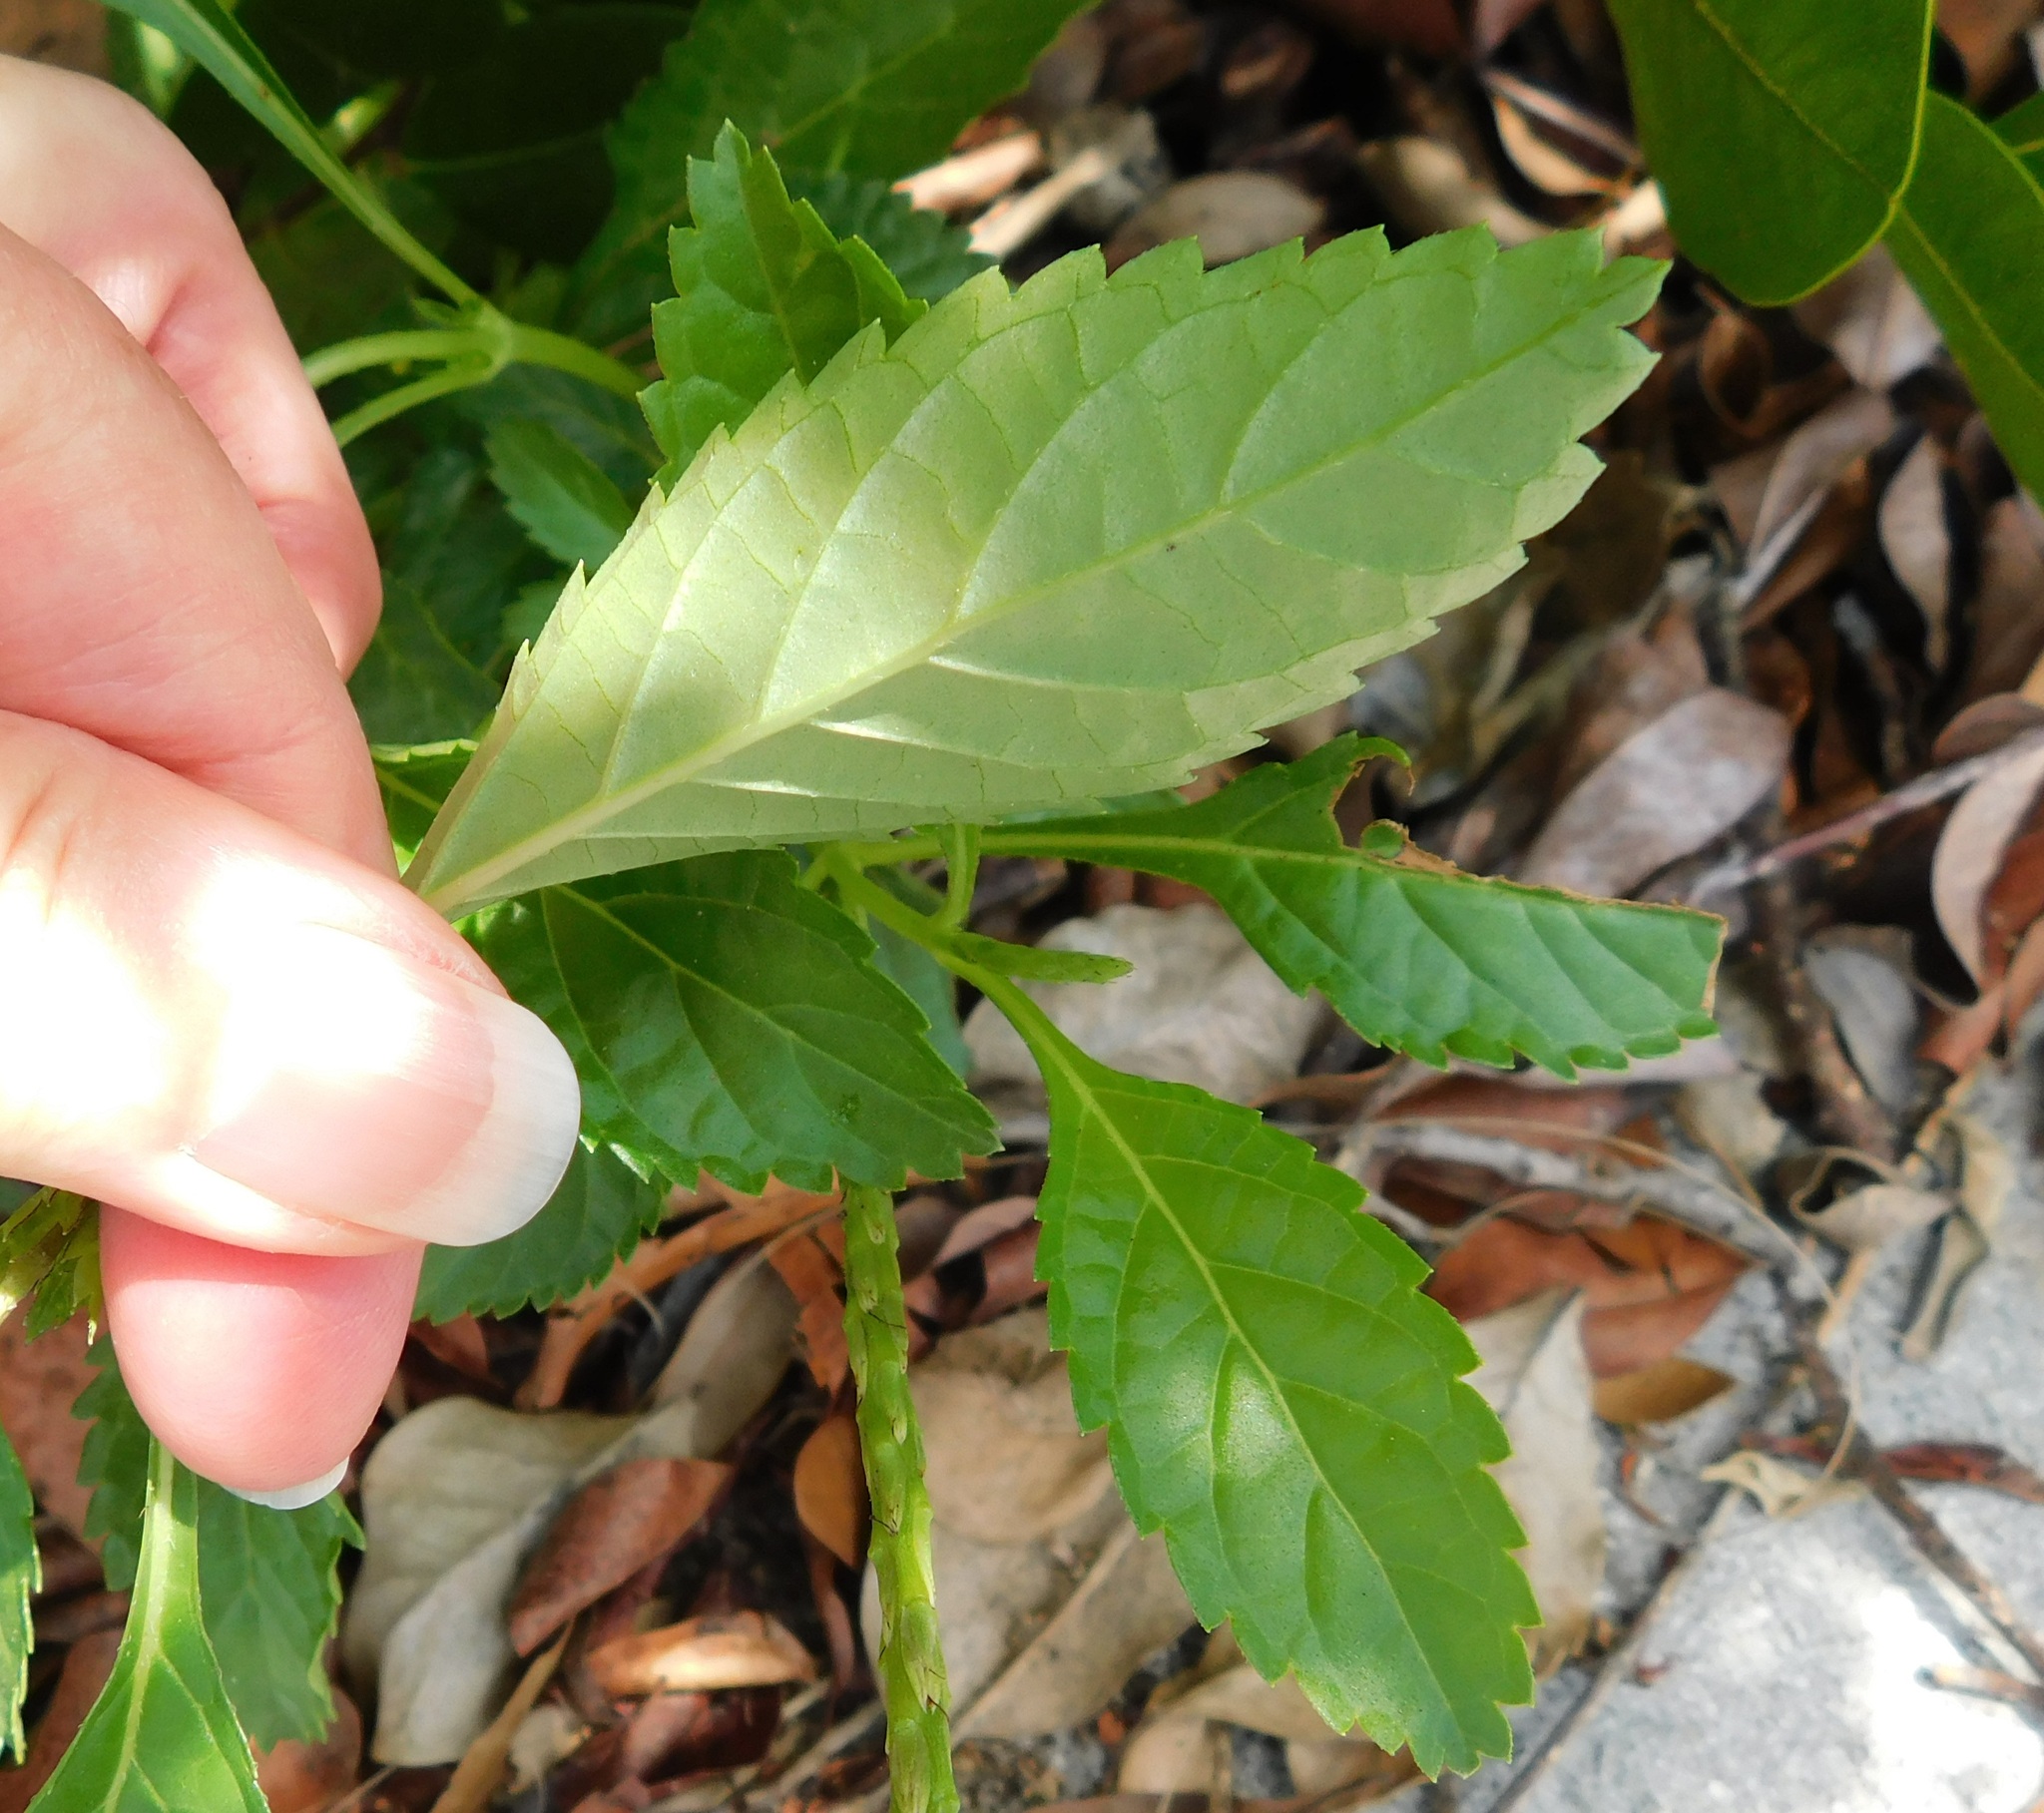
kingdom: Plantae
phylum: Tracheophyta
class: Magnoliopsida
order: Lamiales
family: Verbenaceae
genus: Stachytarpheta
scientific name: Stachytarpheta jamaicensis
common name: Light-blue snakeweed
